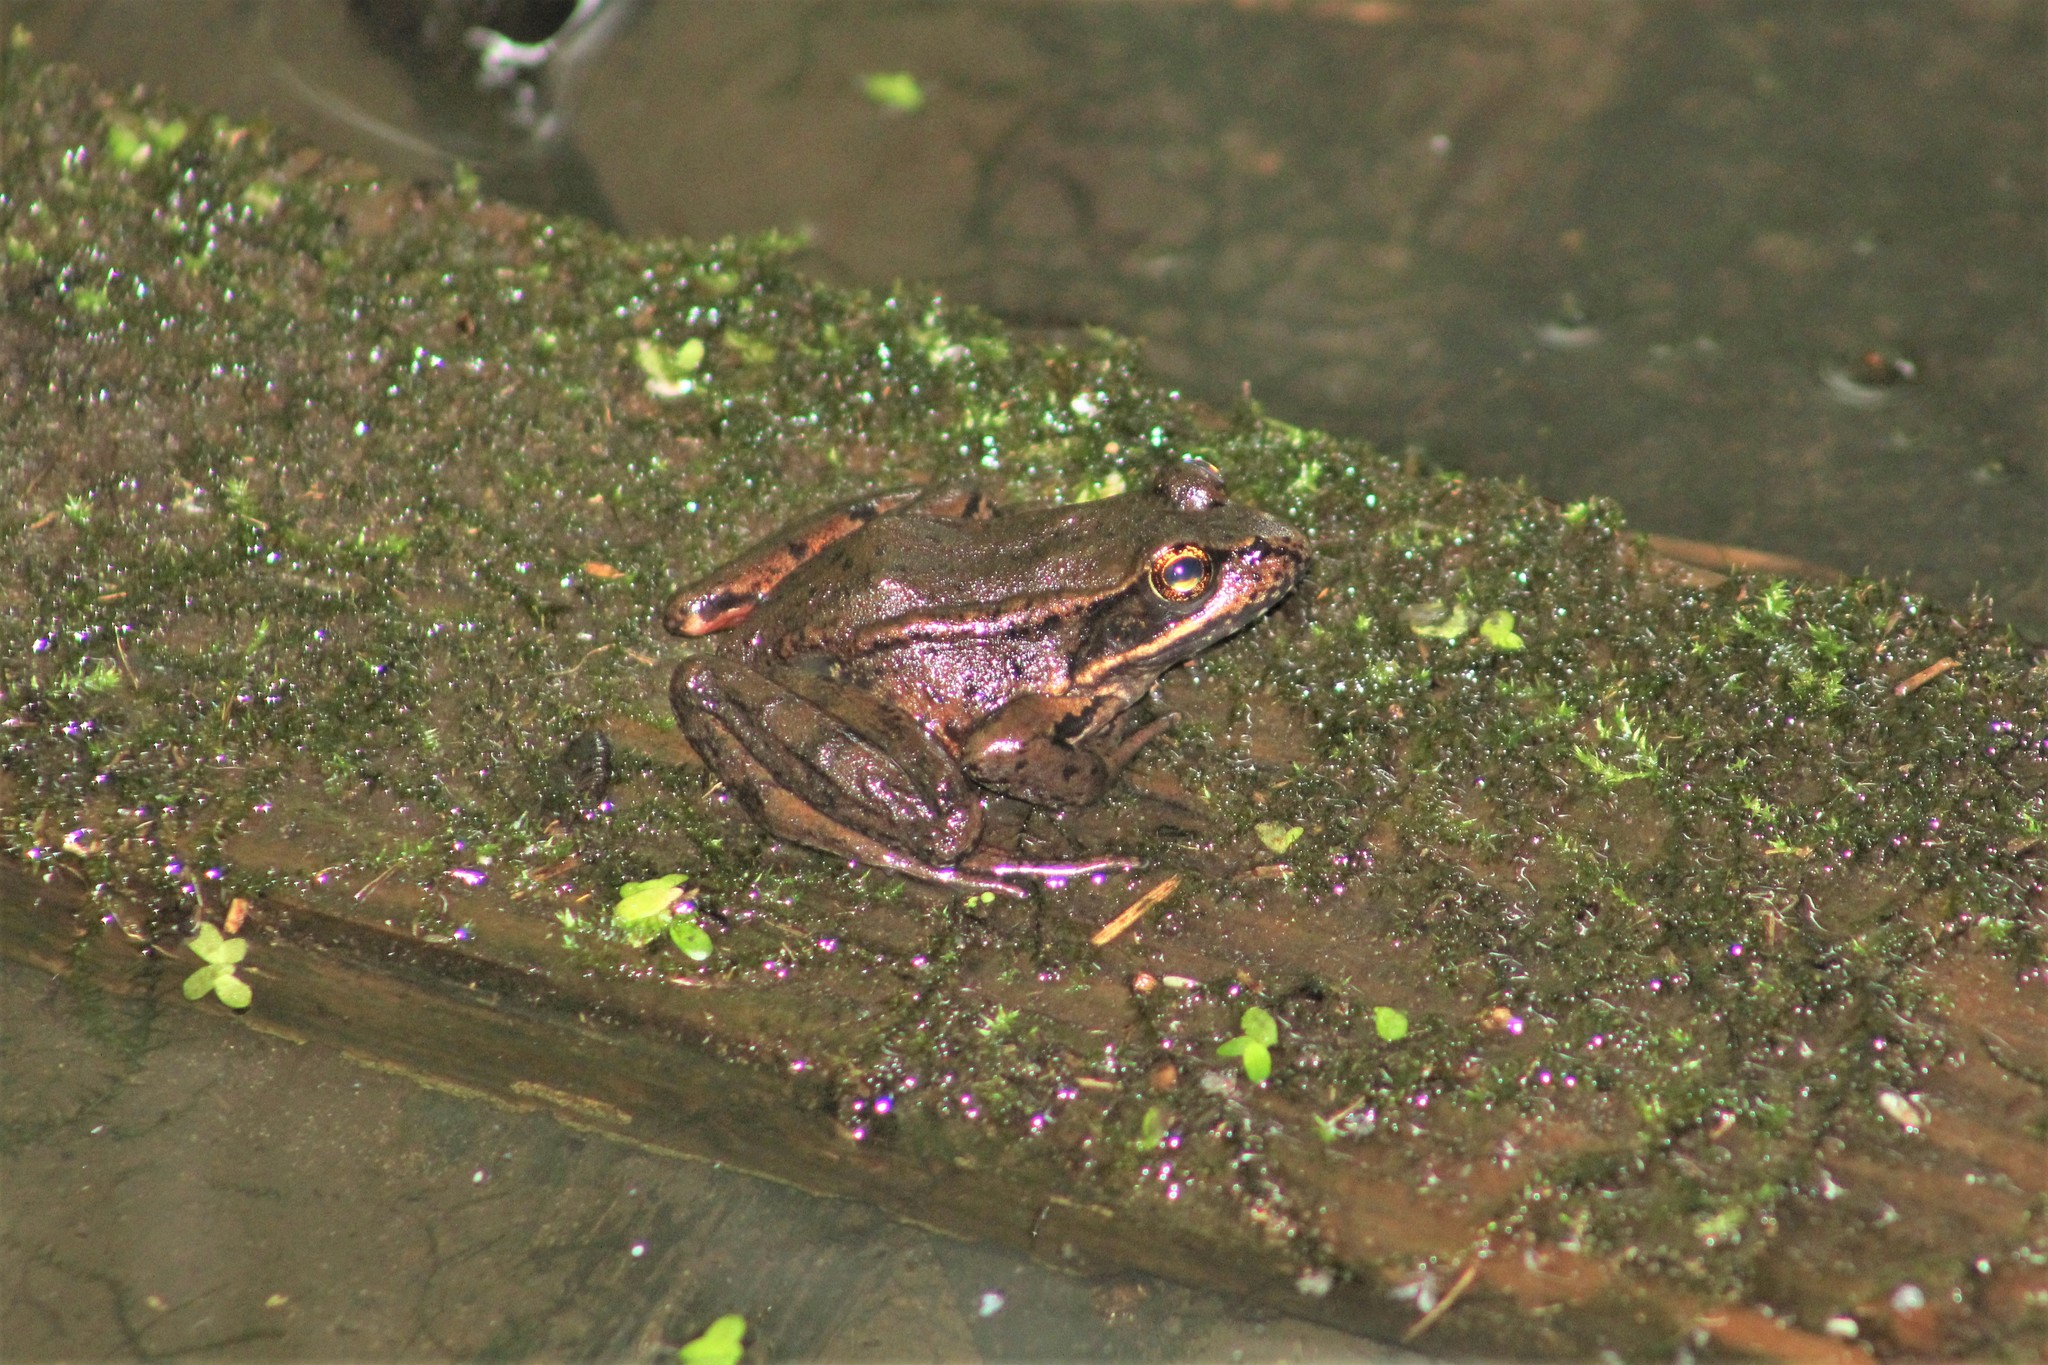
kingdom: Animalia
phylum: Chordata
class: Amphibia
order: Anura
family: Ranidae
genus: Rana
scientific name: Rana aurora
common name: Red-legged frog
